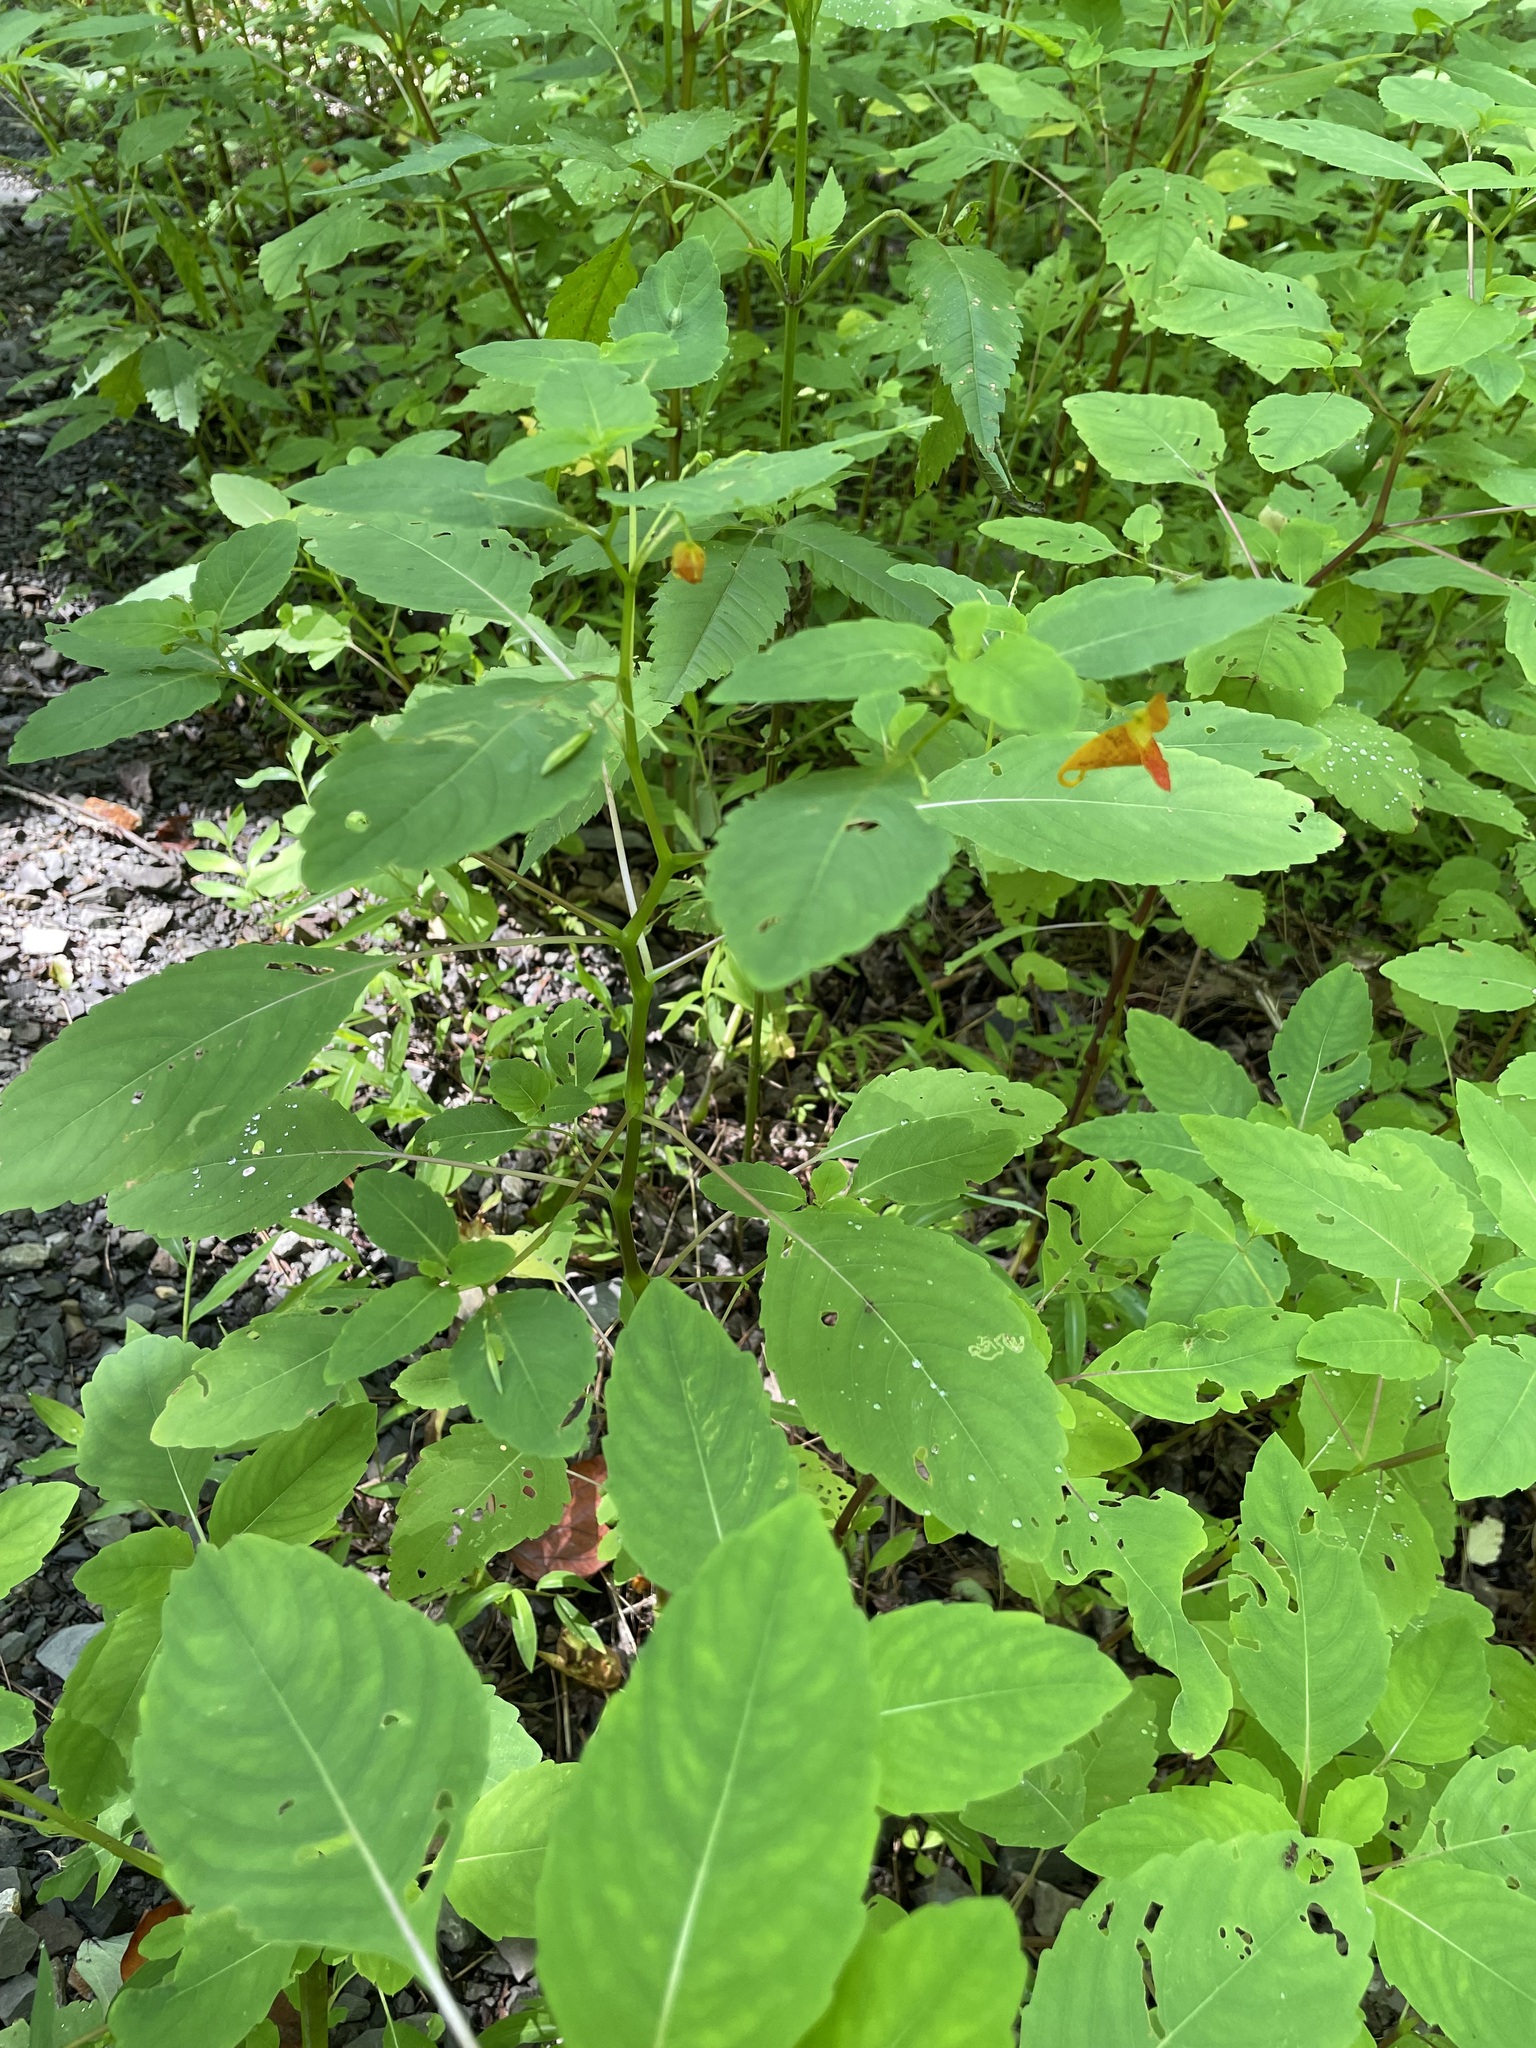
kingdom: Plantae
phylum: Tracheophyta
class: Magnoliopsida
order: Ericales
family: Balsaminaceae
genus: Impatiens
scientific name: Impatiens capensis
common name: Orange balsam
